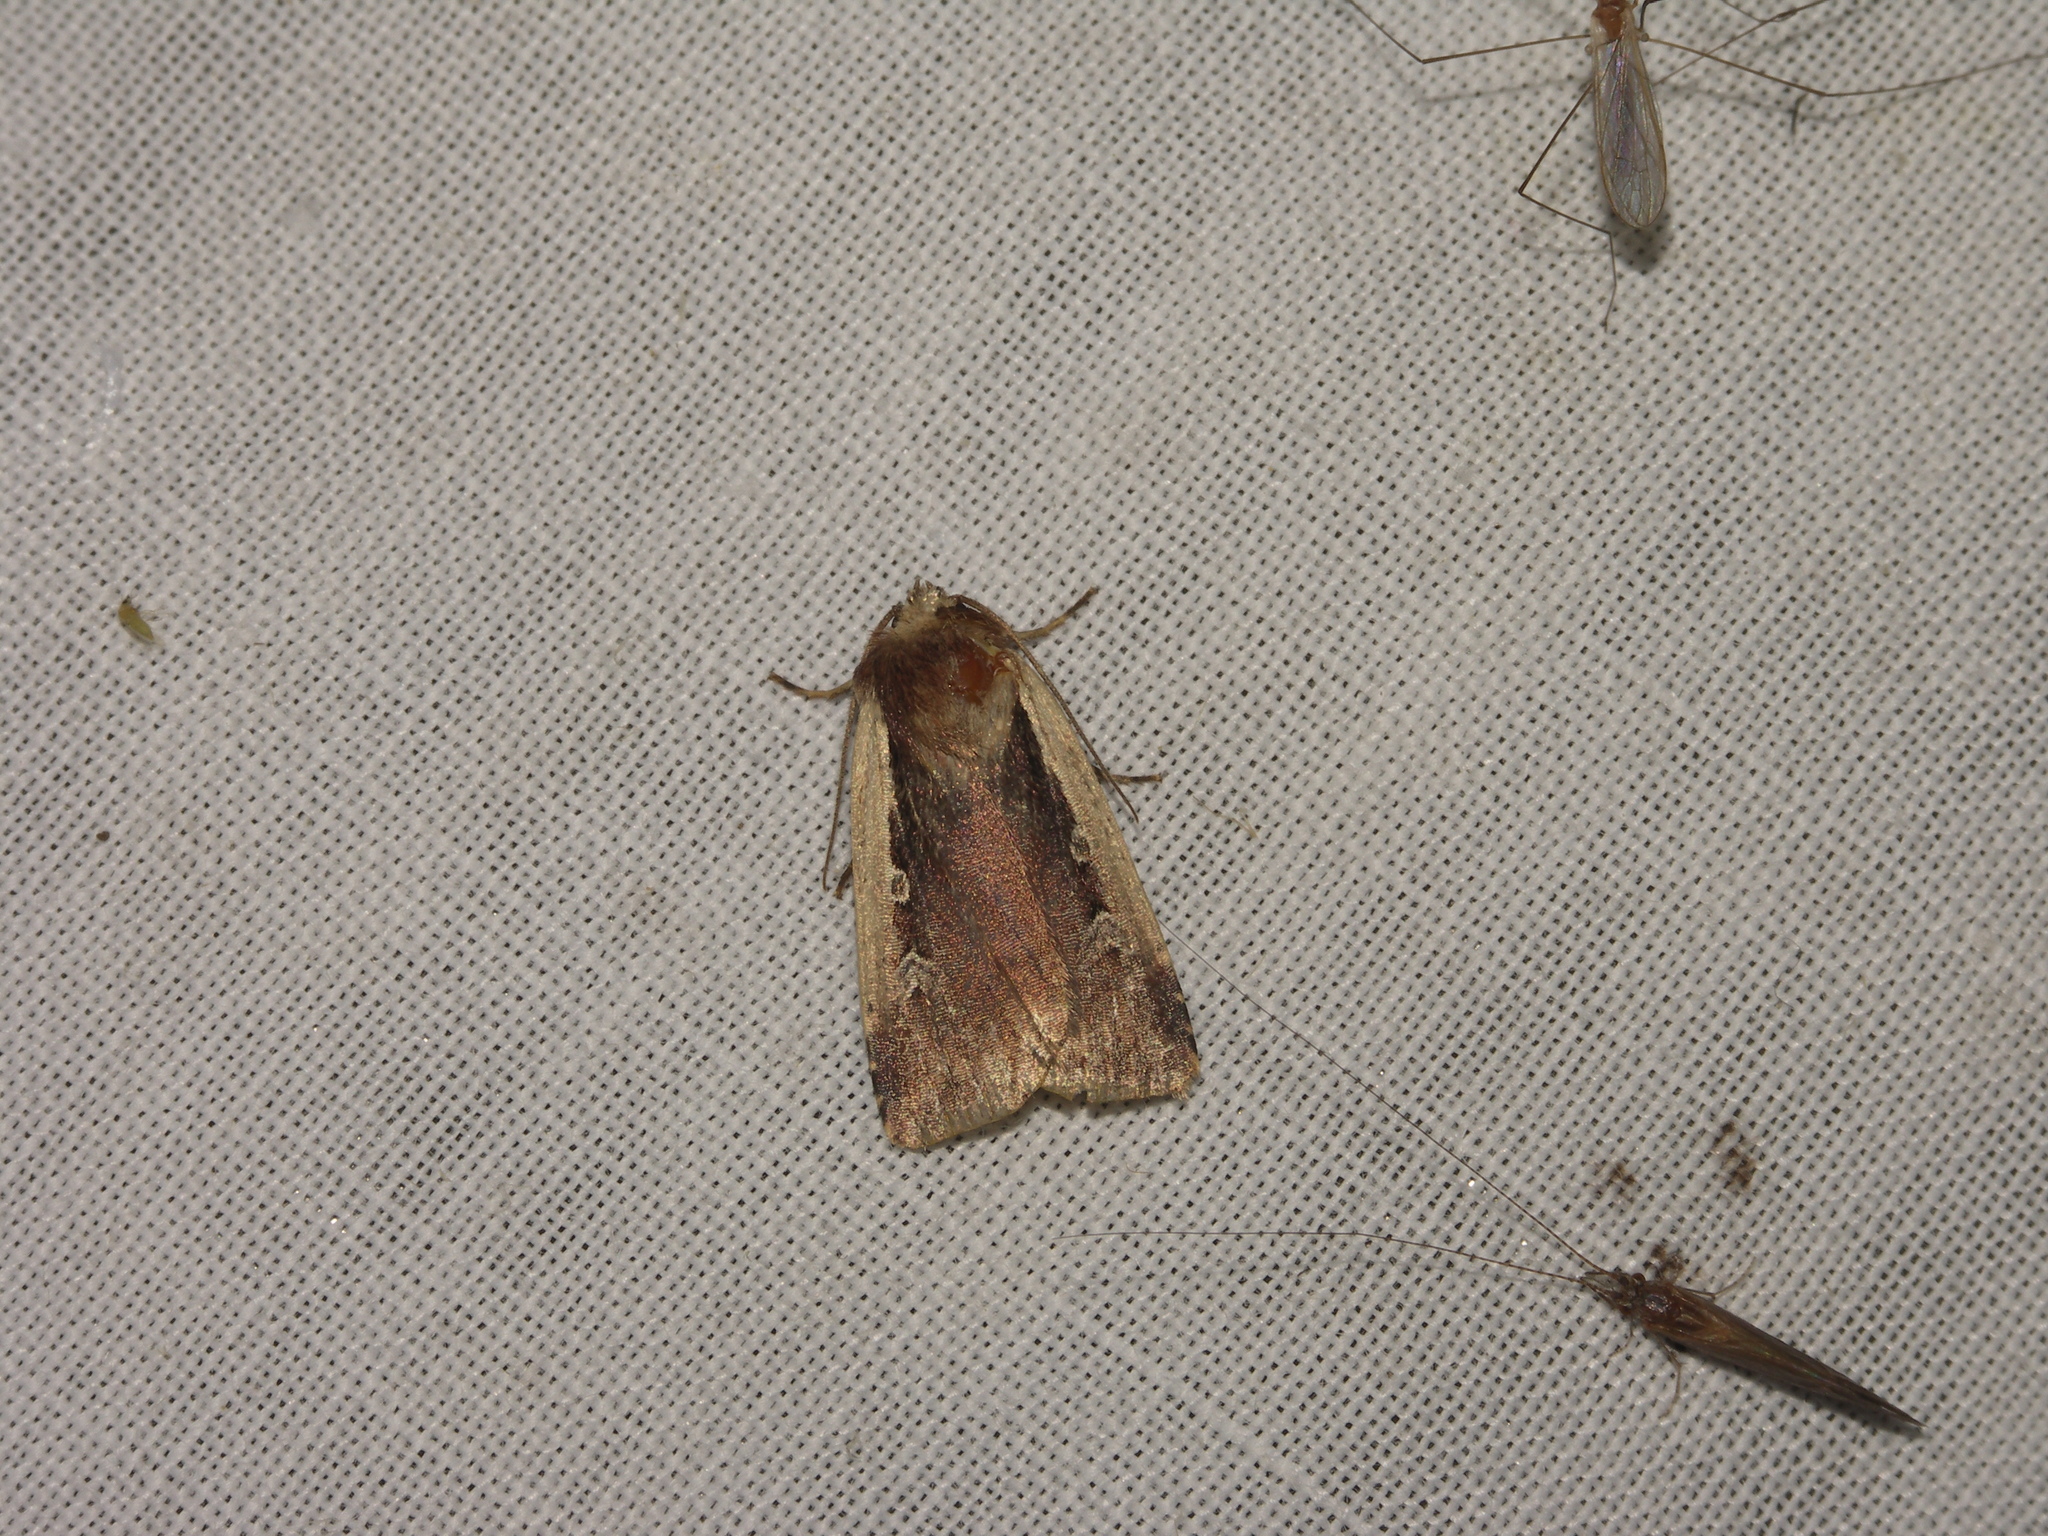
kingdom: Animalia
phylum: Arthropoda
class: Insecta
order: Lepidoptera
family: Noctuidae
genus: Ochropleura
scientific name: Ochropleura plecta
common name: Flame shoulder
